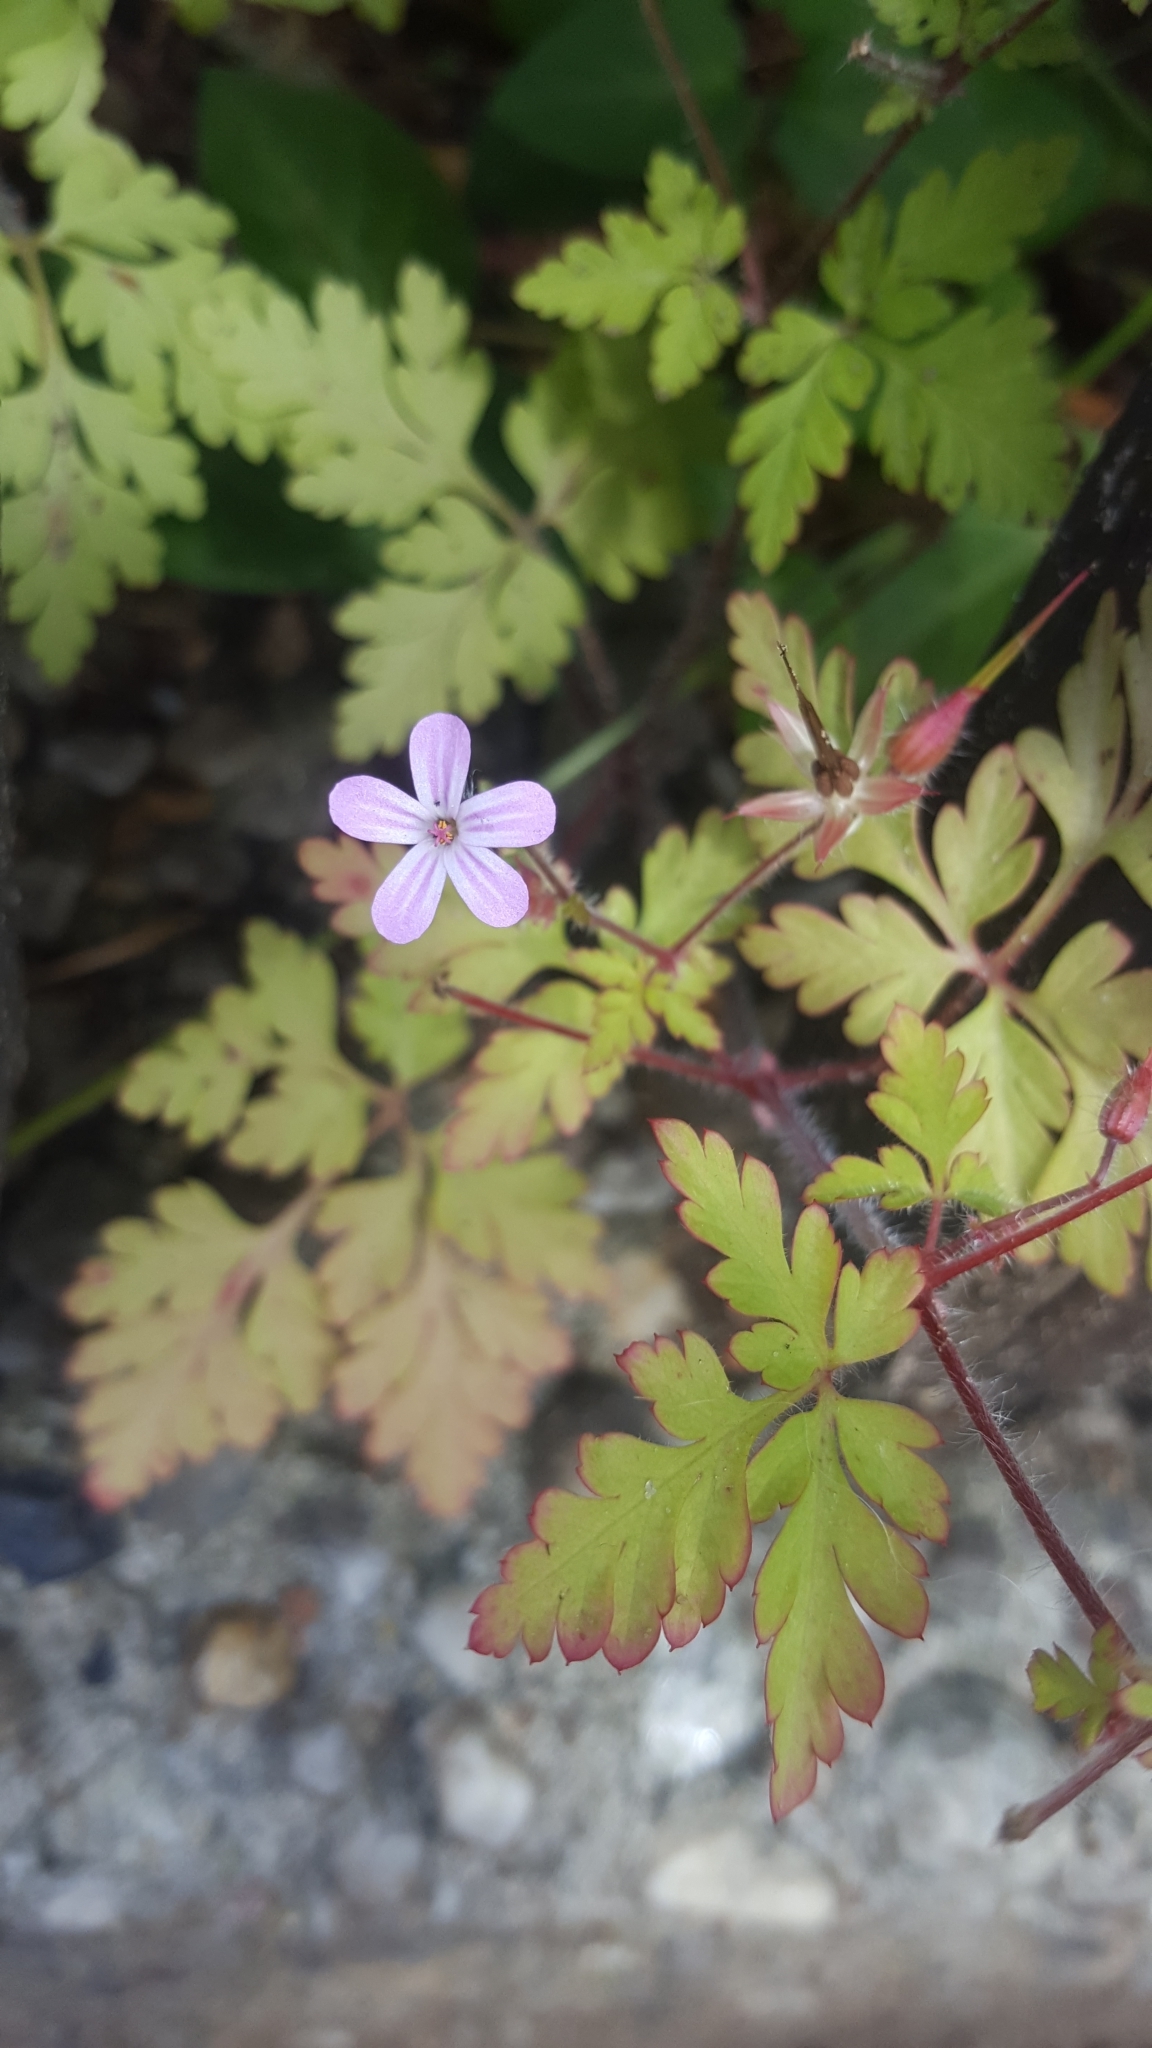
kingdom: Plantae
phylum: Tracheophyta
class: Magnoliopsida
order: Geraniales
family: Geraniaceae
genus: Geranium
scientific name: Geranium robertianum
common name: Herb-robert
